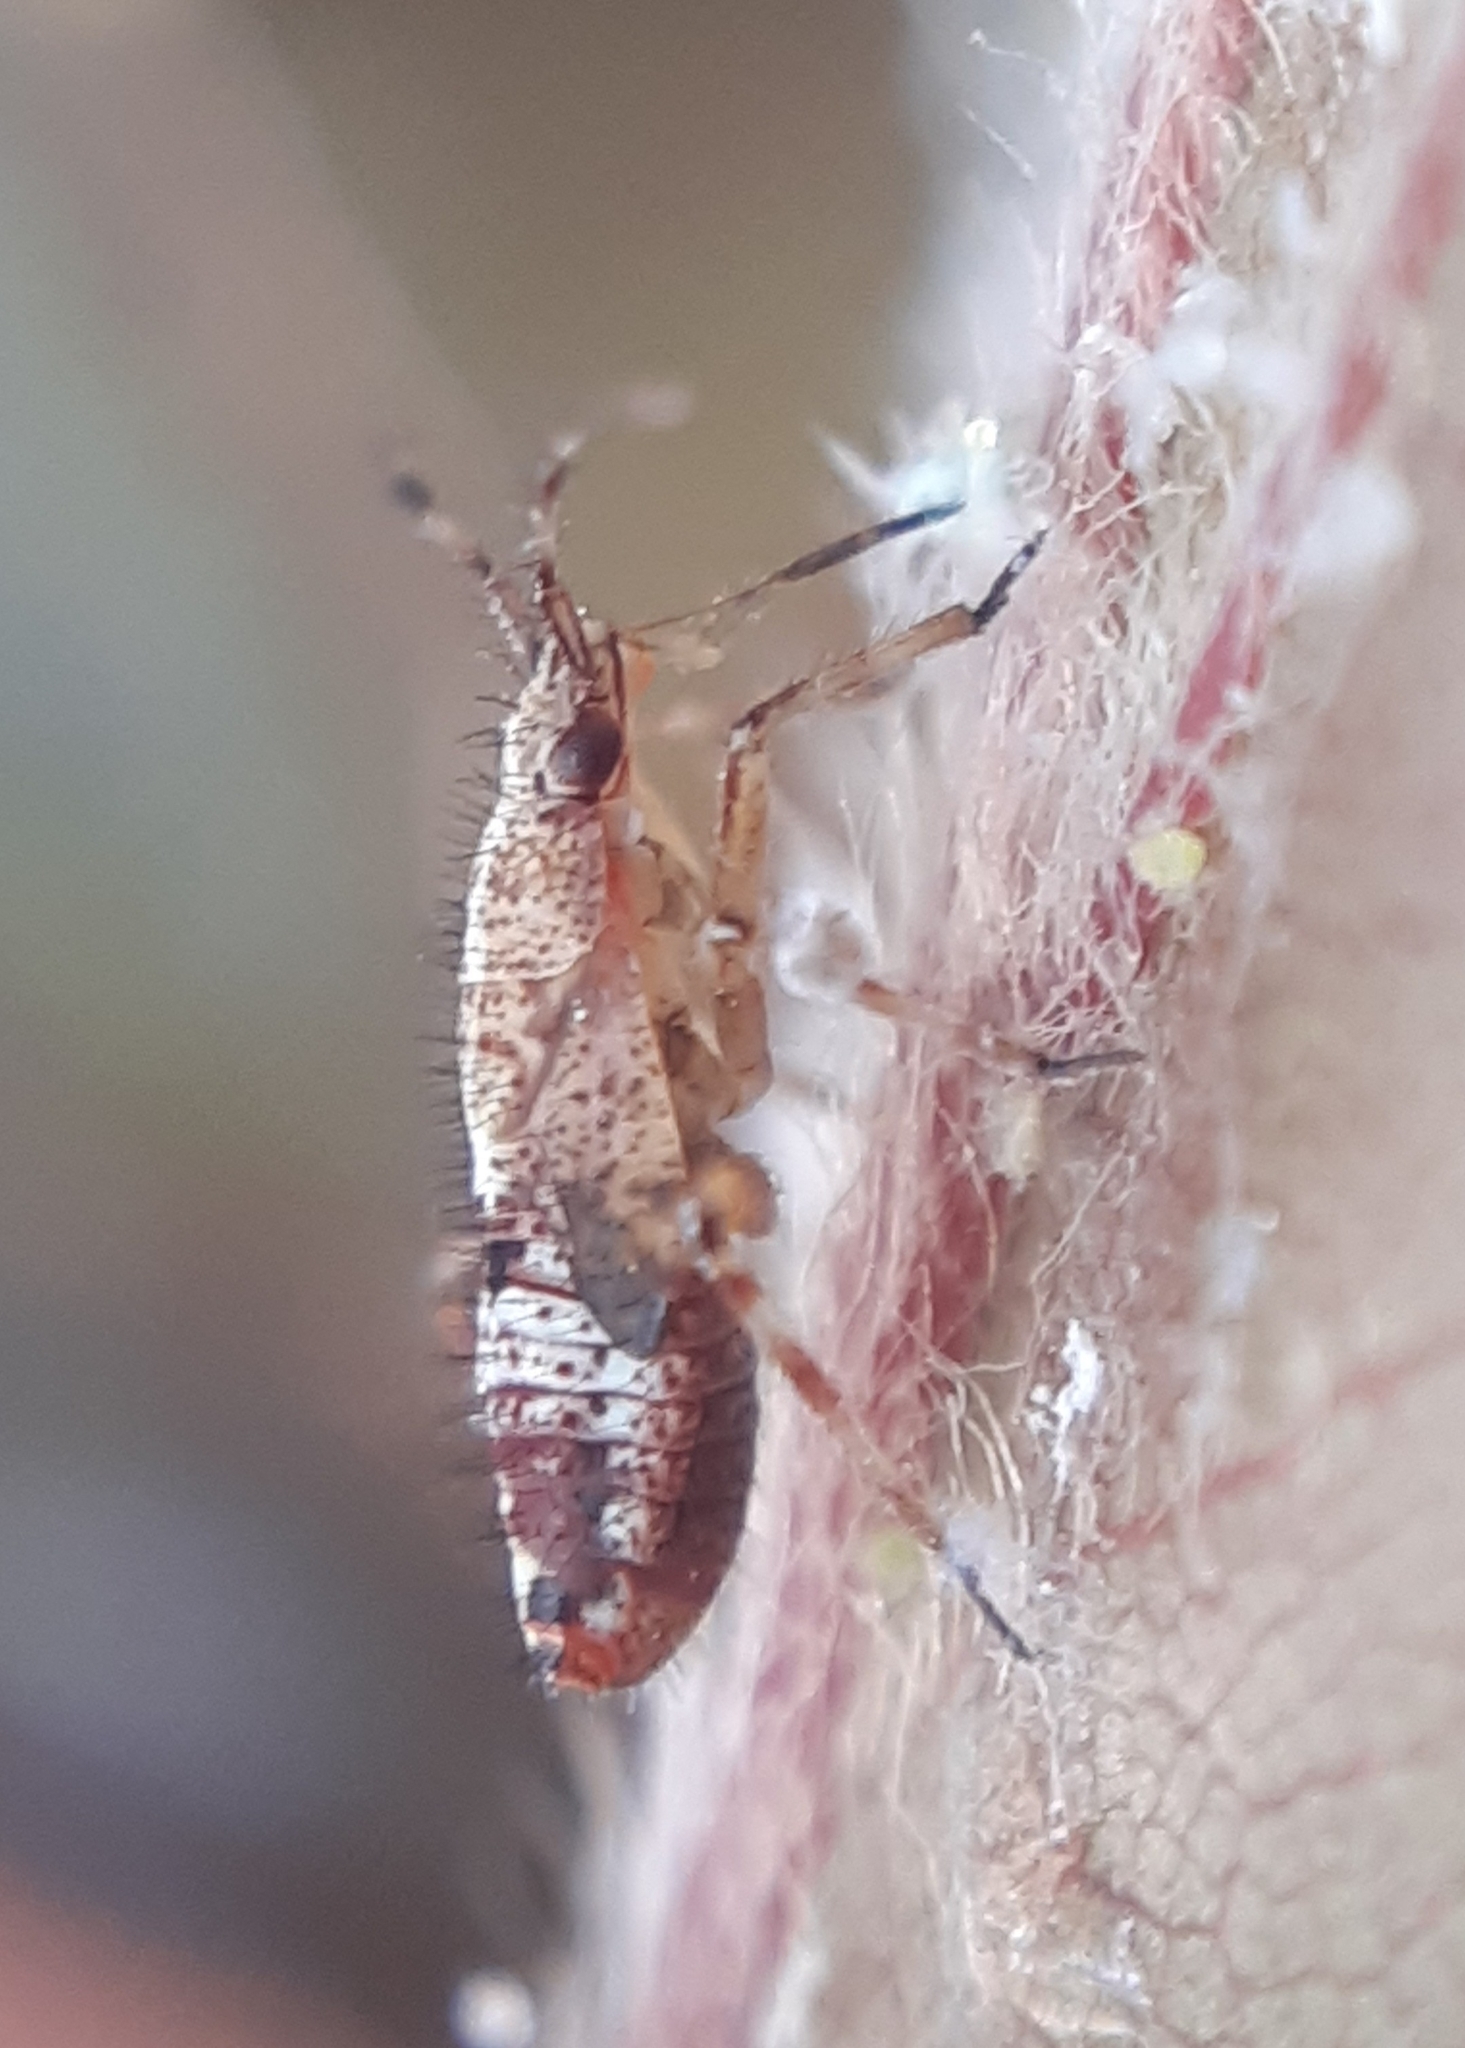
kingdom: Animalia
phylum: Arthropoda
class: Insecta
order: Hemiptera
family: Miridae
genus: Deraeocoris
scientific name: Deraeocoris flavilinea
